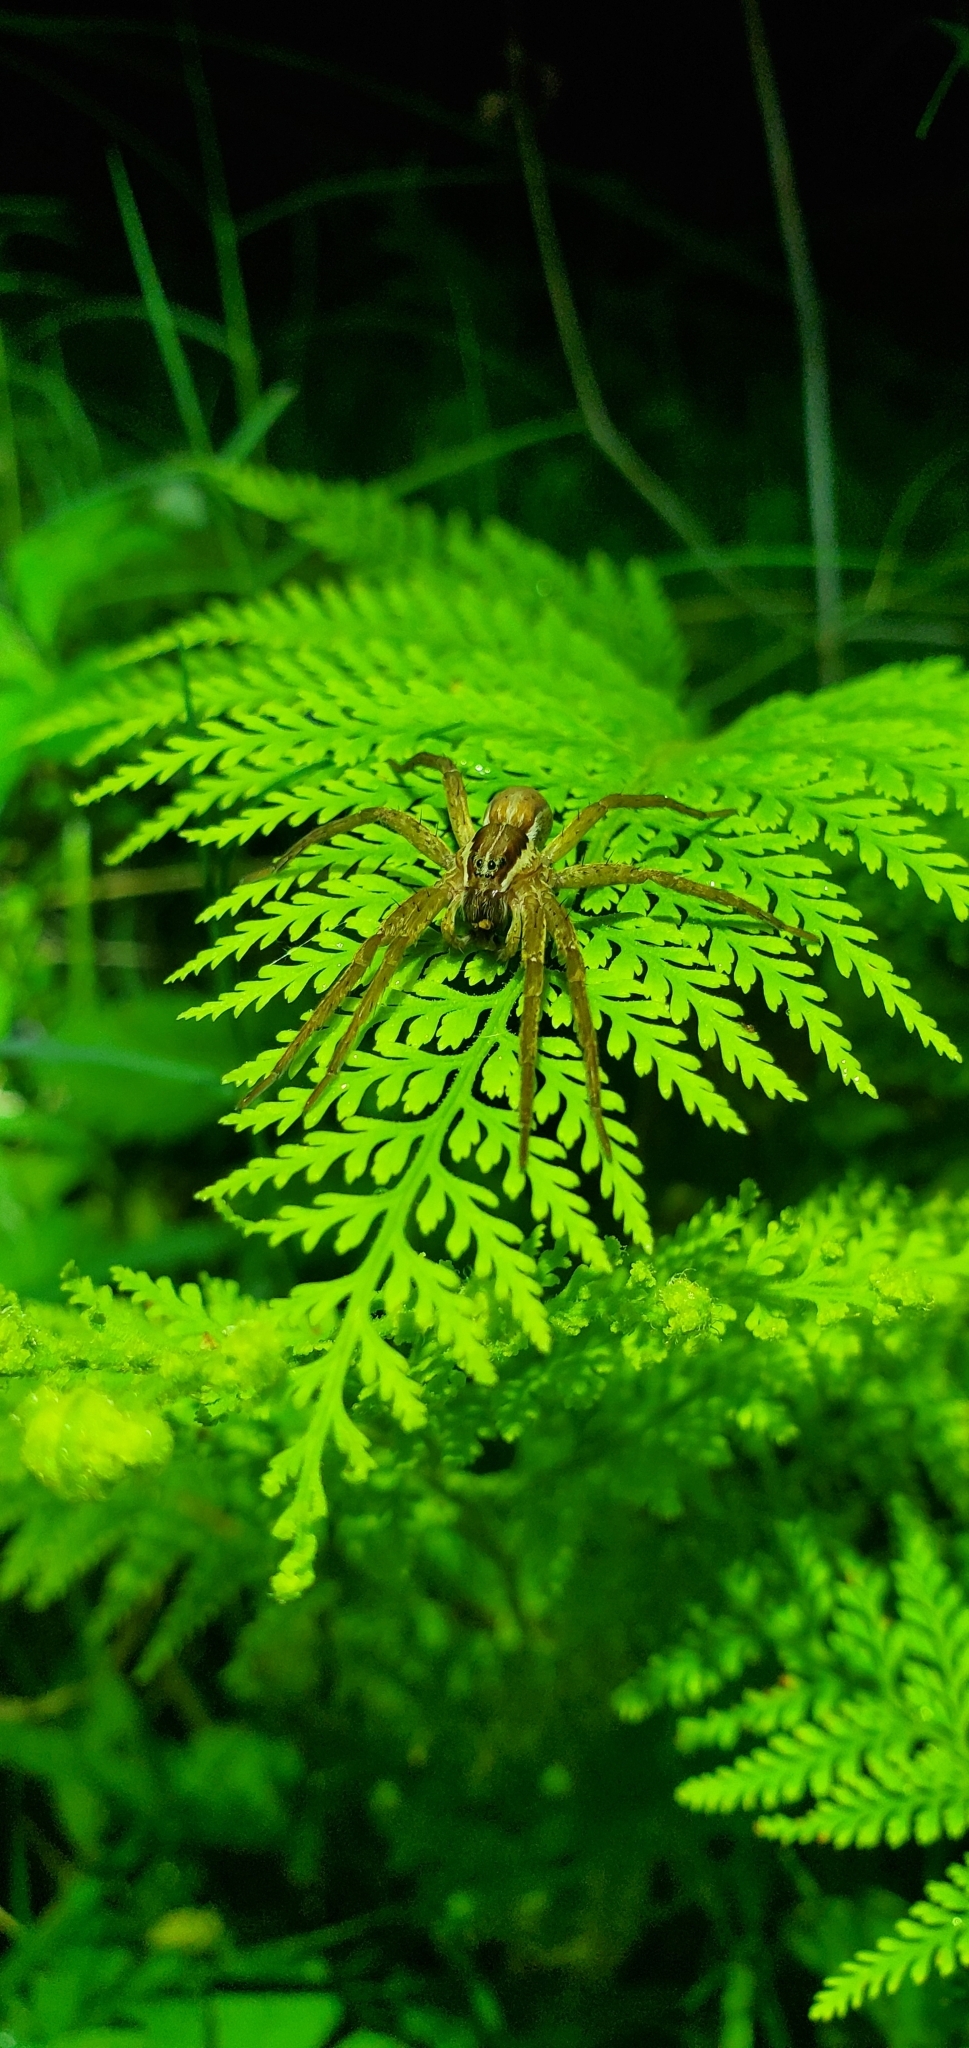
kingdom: Animalia
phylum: Arthropoda
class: Arachnida
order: Araneae
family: Pisauridae
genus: Dolomedes
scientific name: Dolomedes minor
